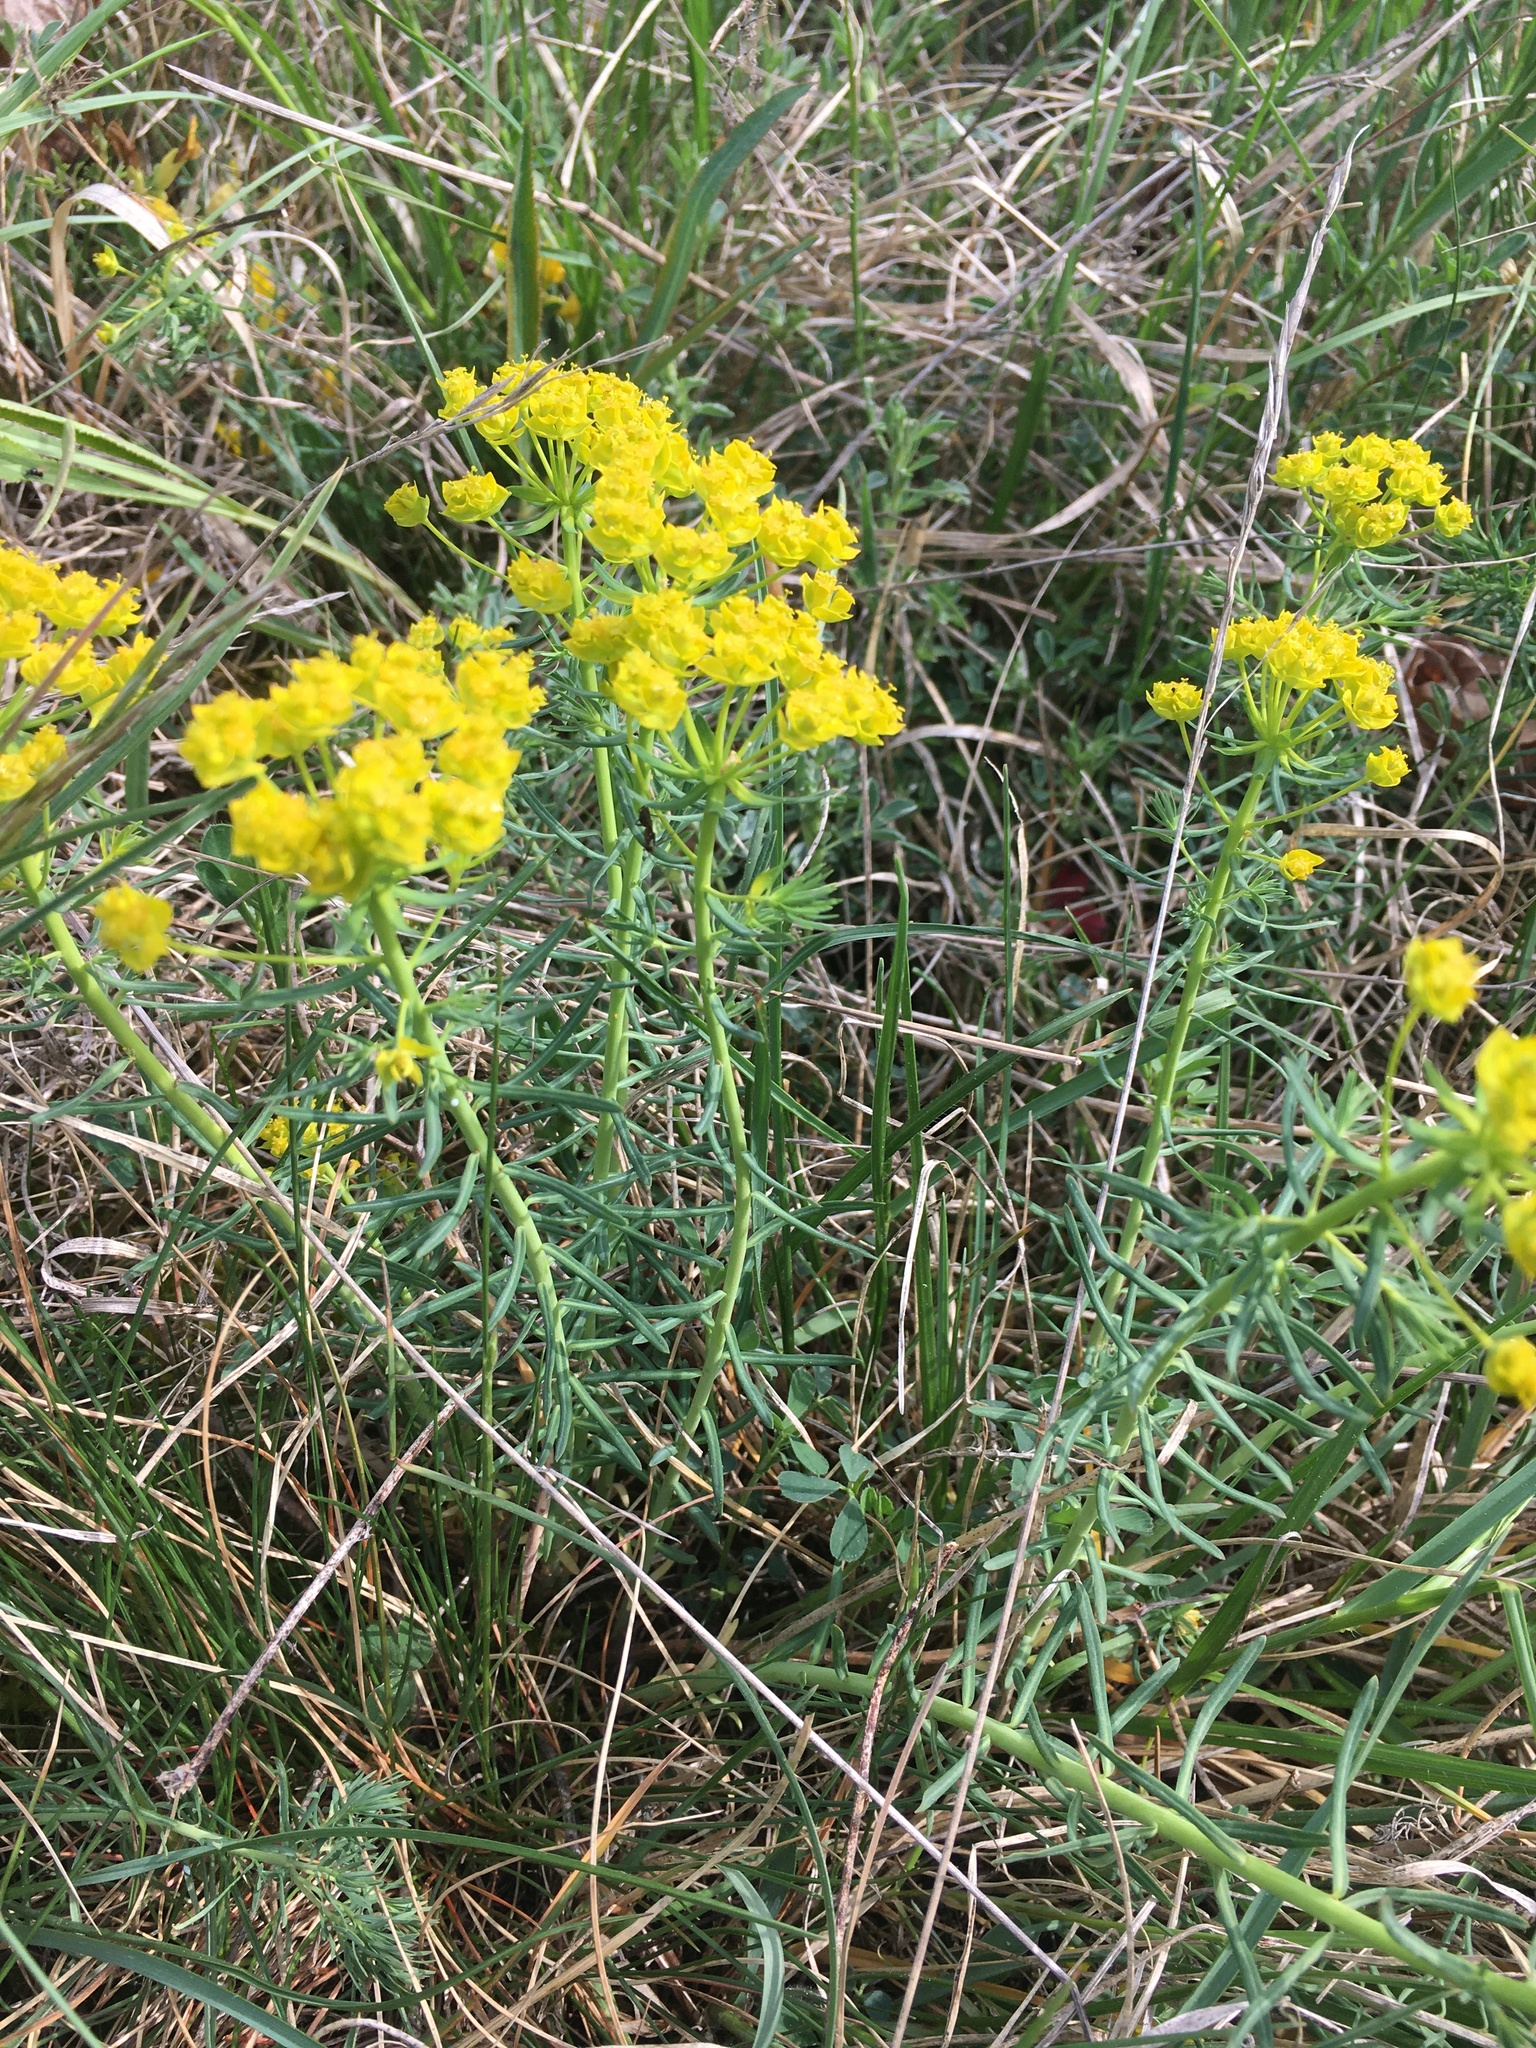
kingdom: Plantae
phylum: Tracheophyta
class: Magnoliopsida
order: Malpighiales
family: Euphorbiaceae
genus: Euphorbia
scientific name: Euphorbia cyparissias
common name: Cypress spurge
